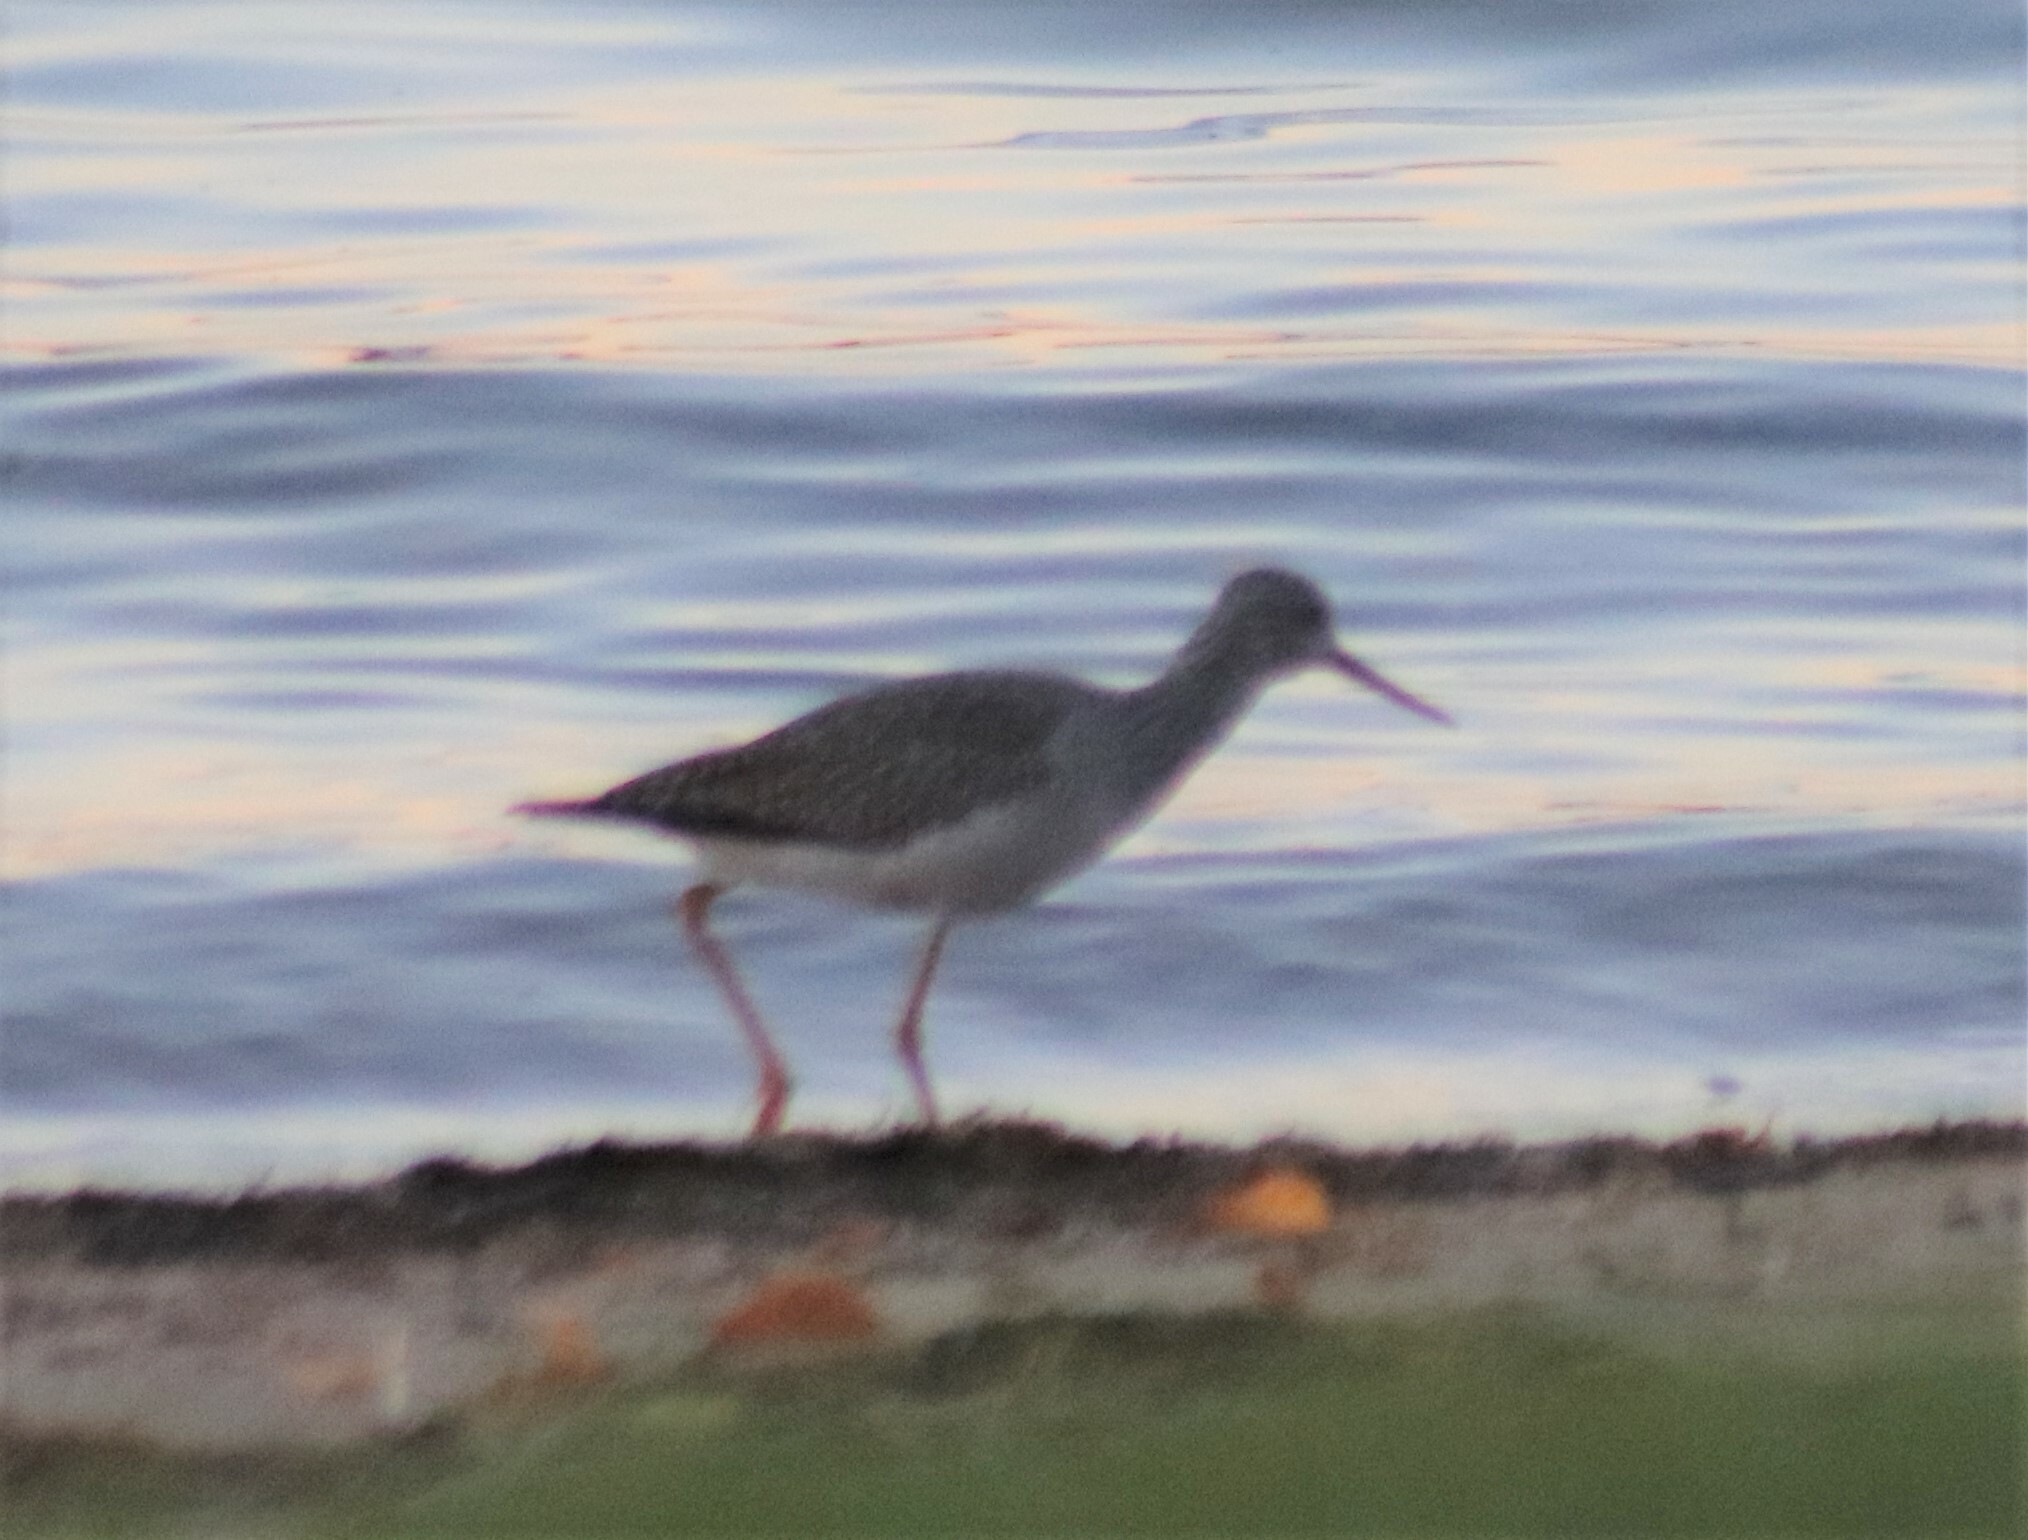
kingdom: Animalia
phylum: Chordata
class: Aves
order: Charadriiformes
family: Scolopacidae
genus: Tringa
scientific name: Tringa melanoleuca
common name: Greater yellowlegs
